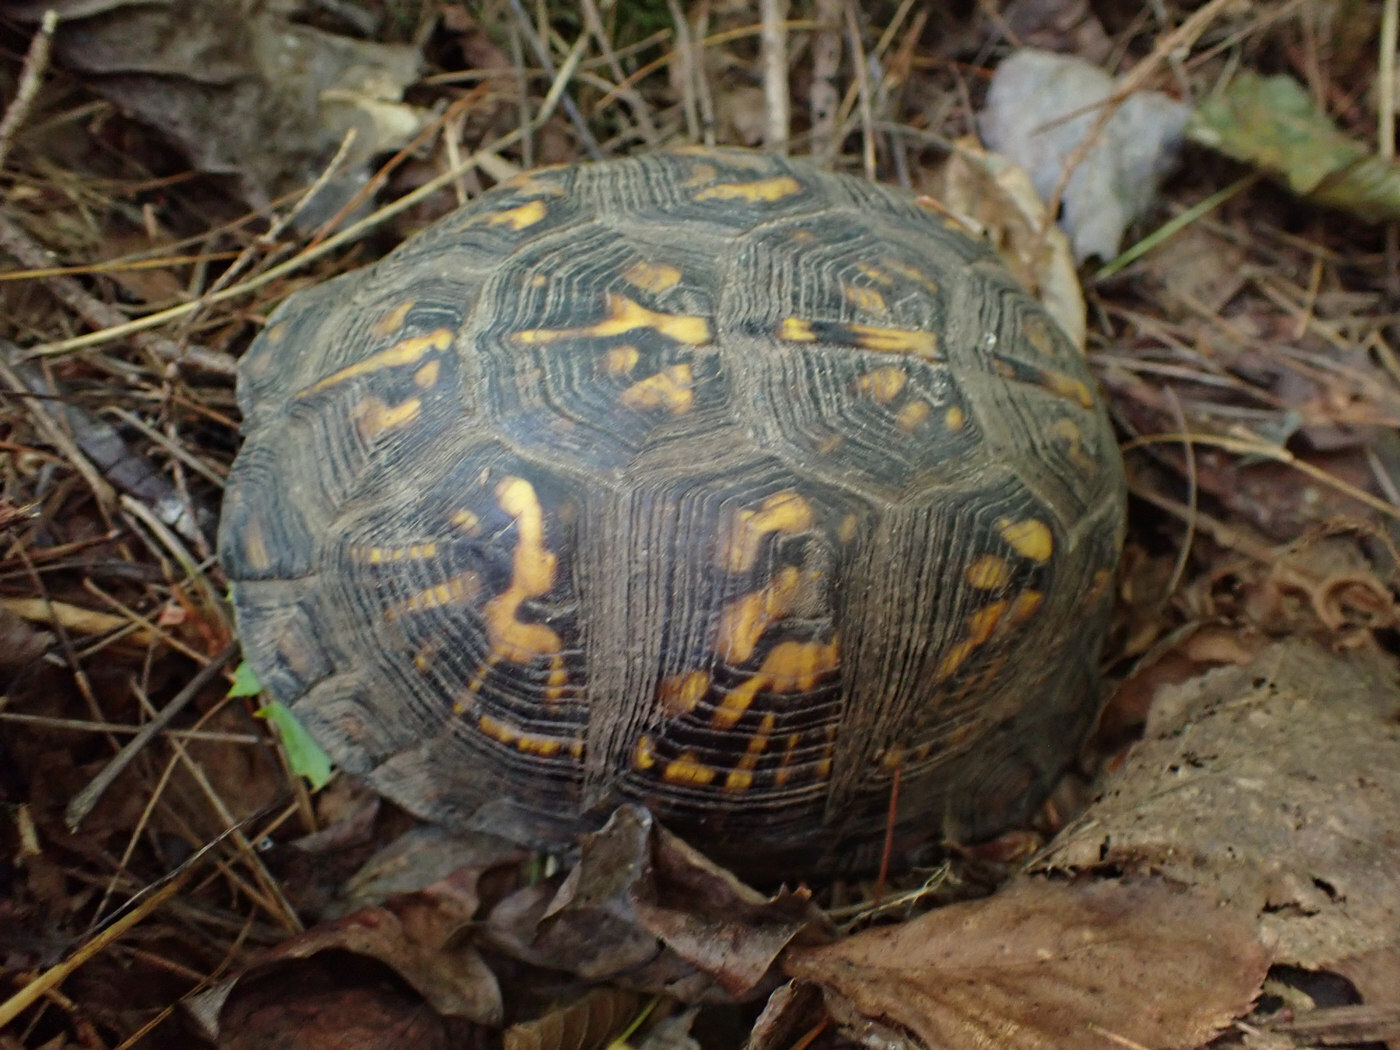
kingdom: Animalia
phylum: Chordata
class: Testudines
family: Emydidae
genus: Terrapene
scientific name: Terrapene carolina
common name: Common box turtle
